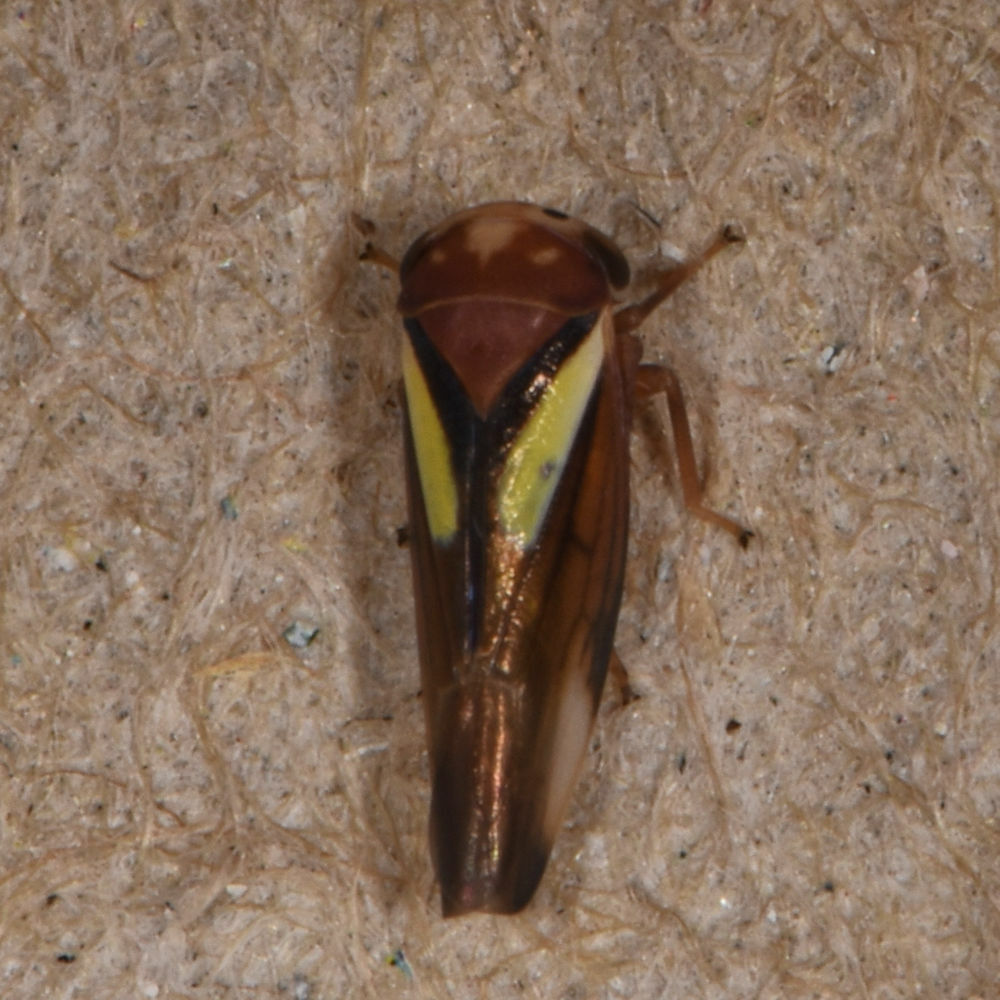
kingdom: Animalia
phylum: Arthropoda
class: Insecta
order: Hemiptera
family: Cicadellidae
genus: Balcanocerus
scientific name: Balcanocerus provancheri
